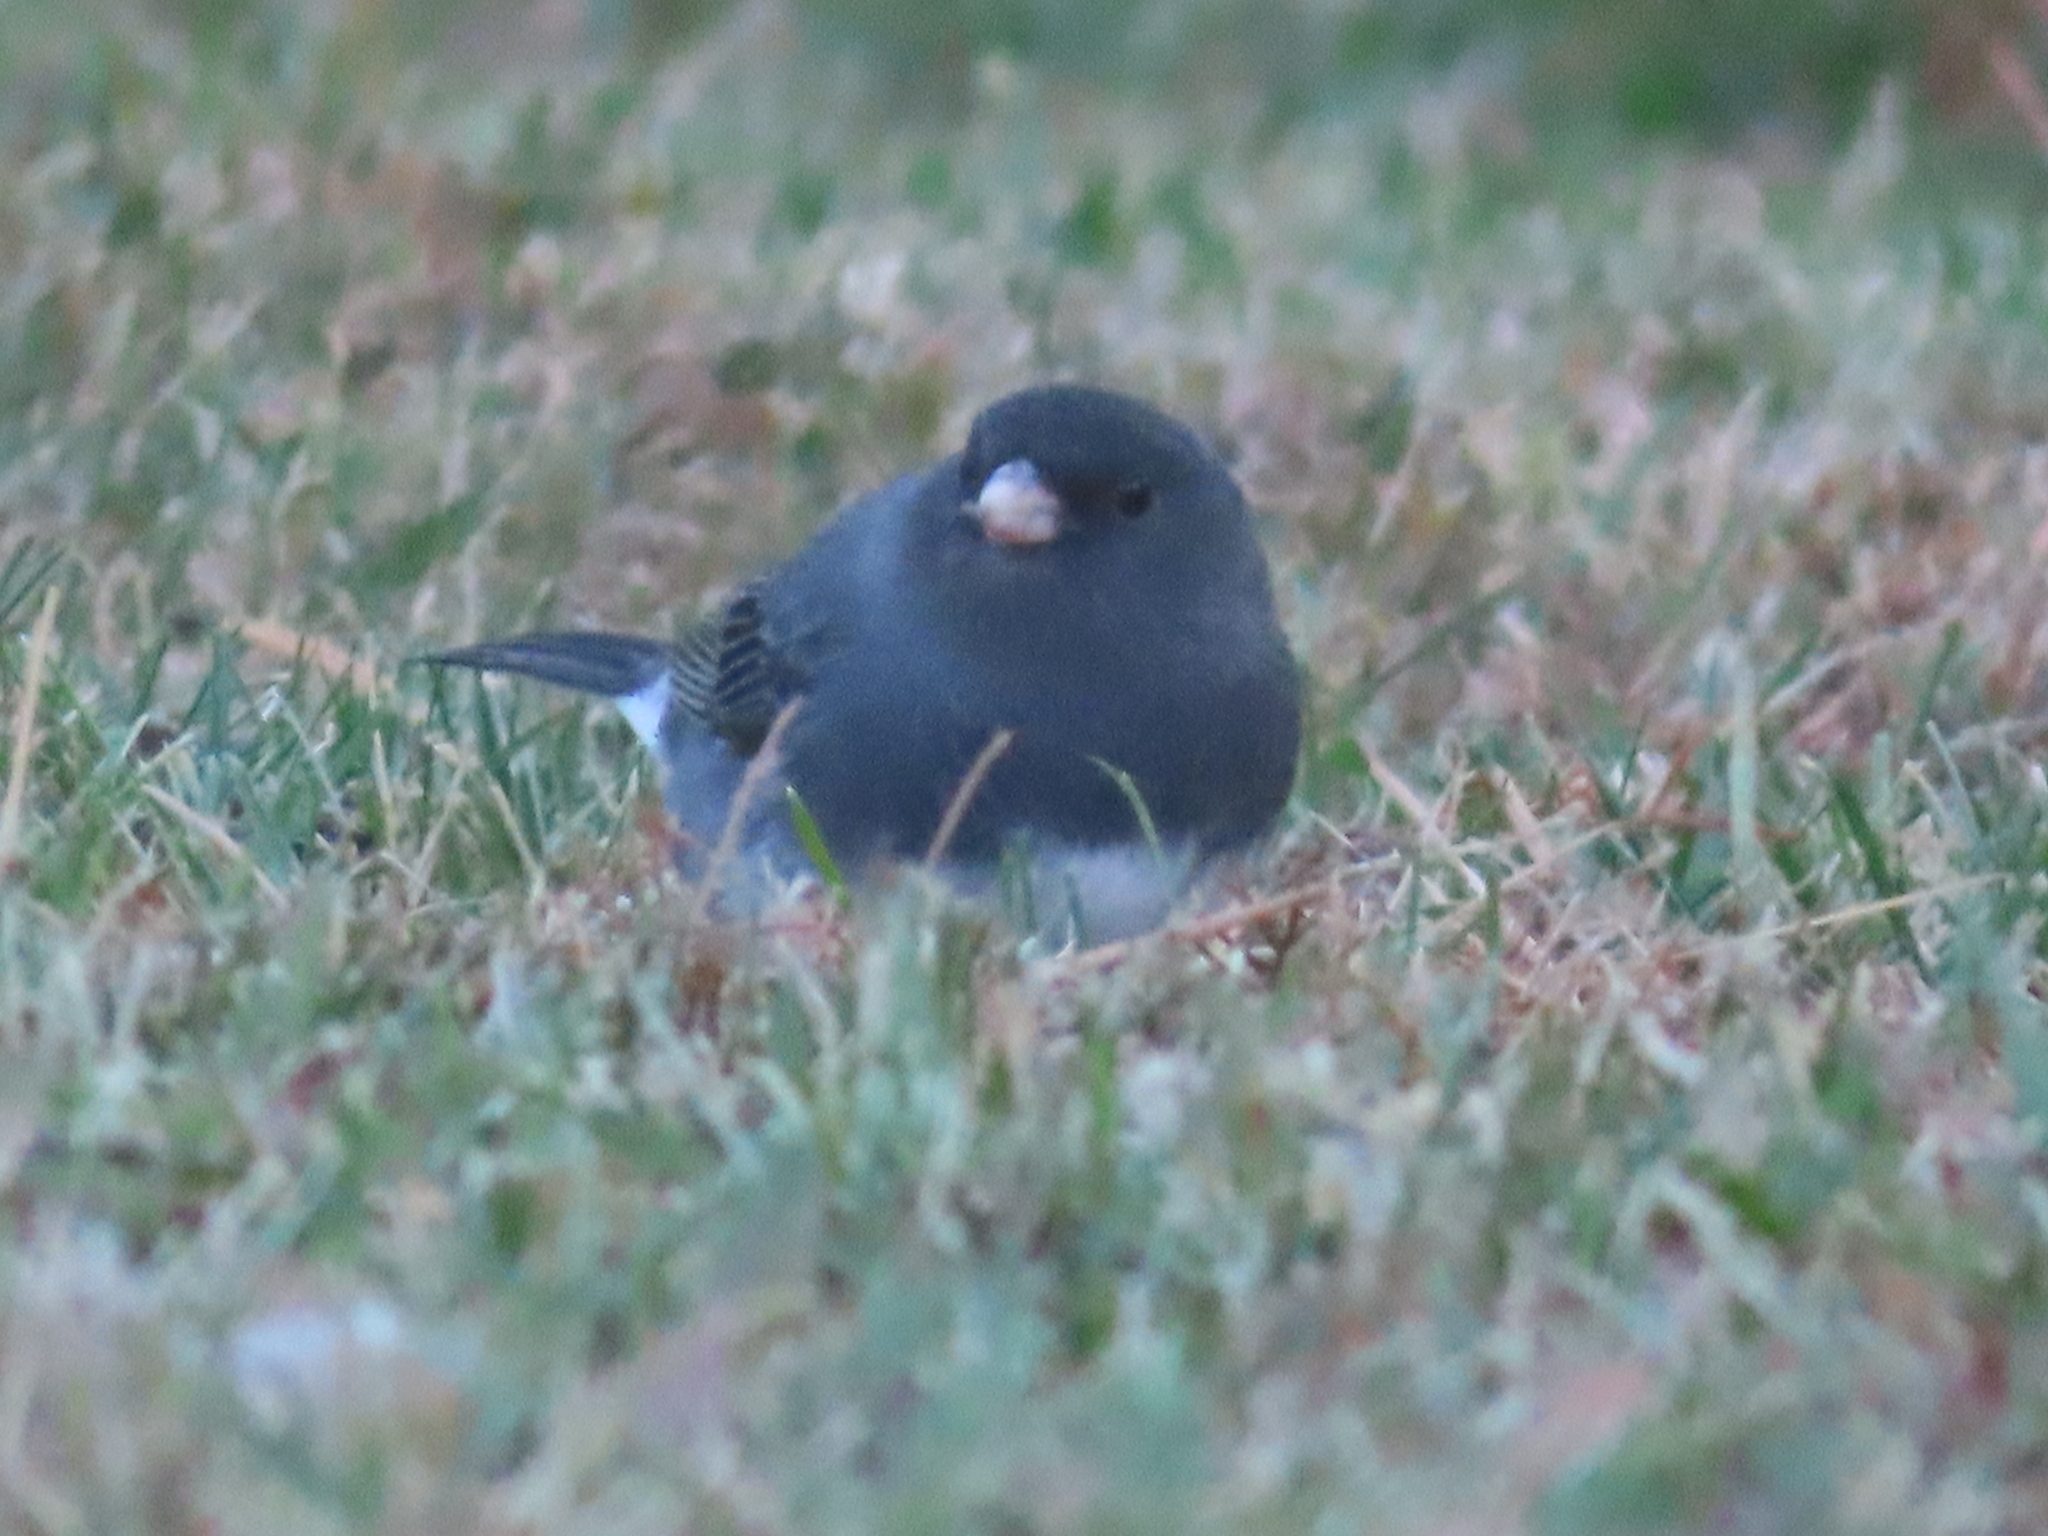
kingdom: Animalia
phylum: Chordata
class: Aves
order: Passeriformes
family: Passerellidae
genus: Junco
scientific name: Junco hyemalis
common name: Dark-eyed junco
